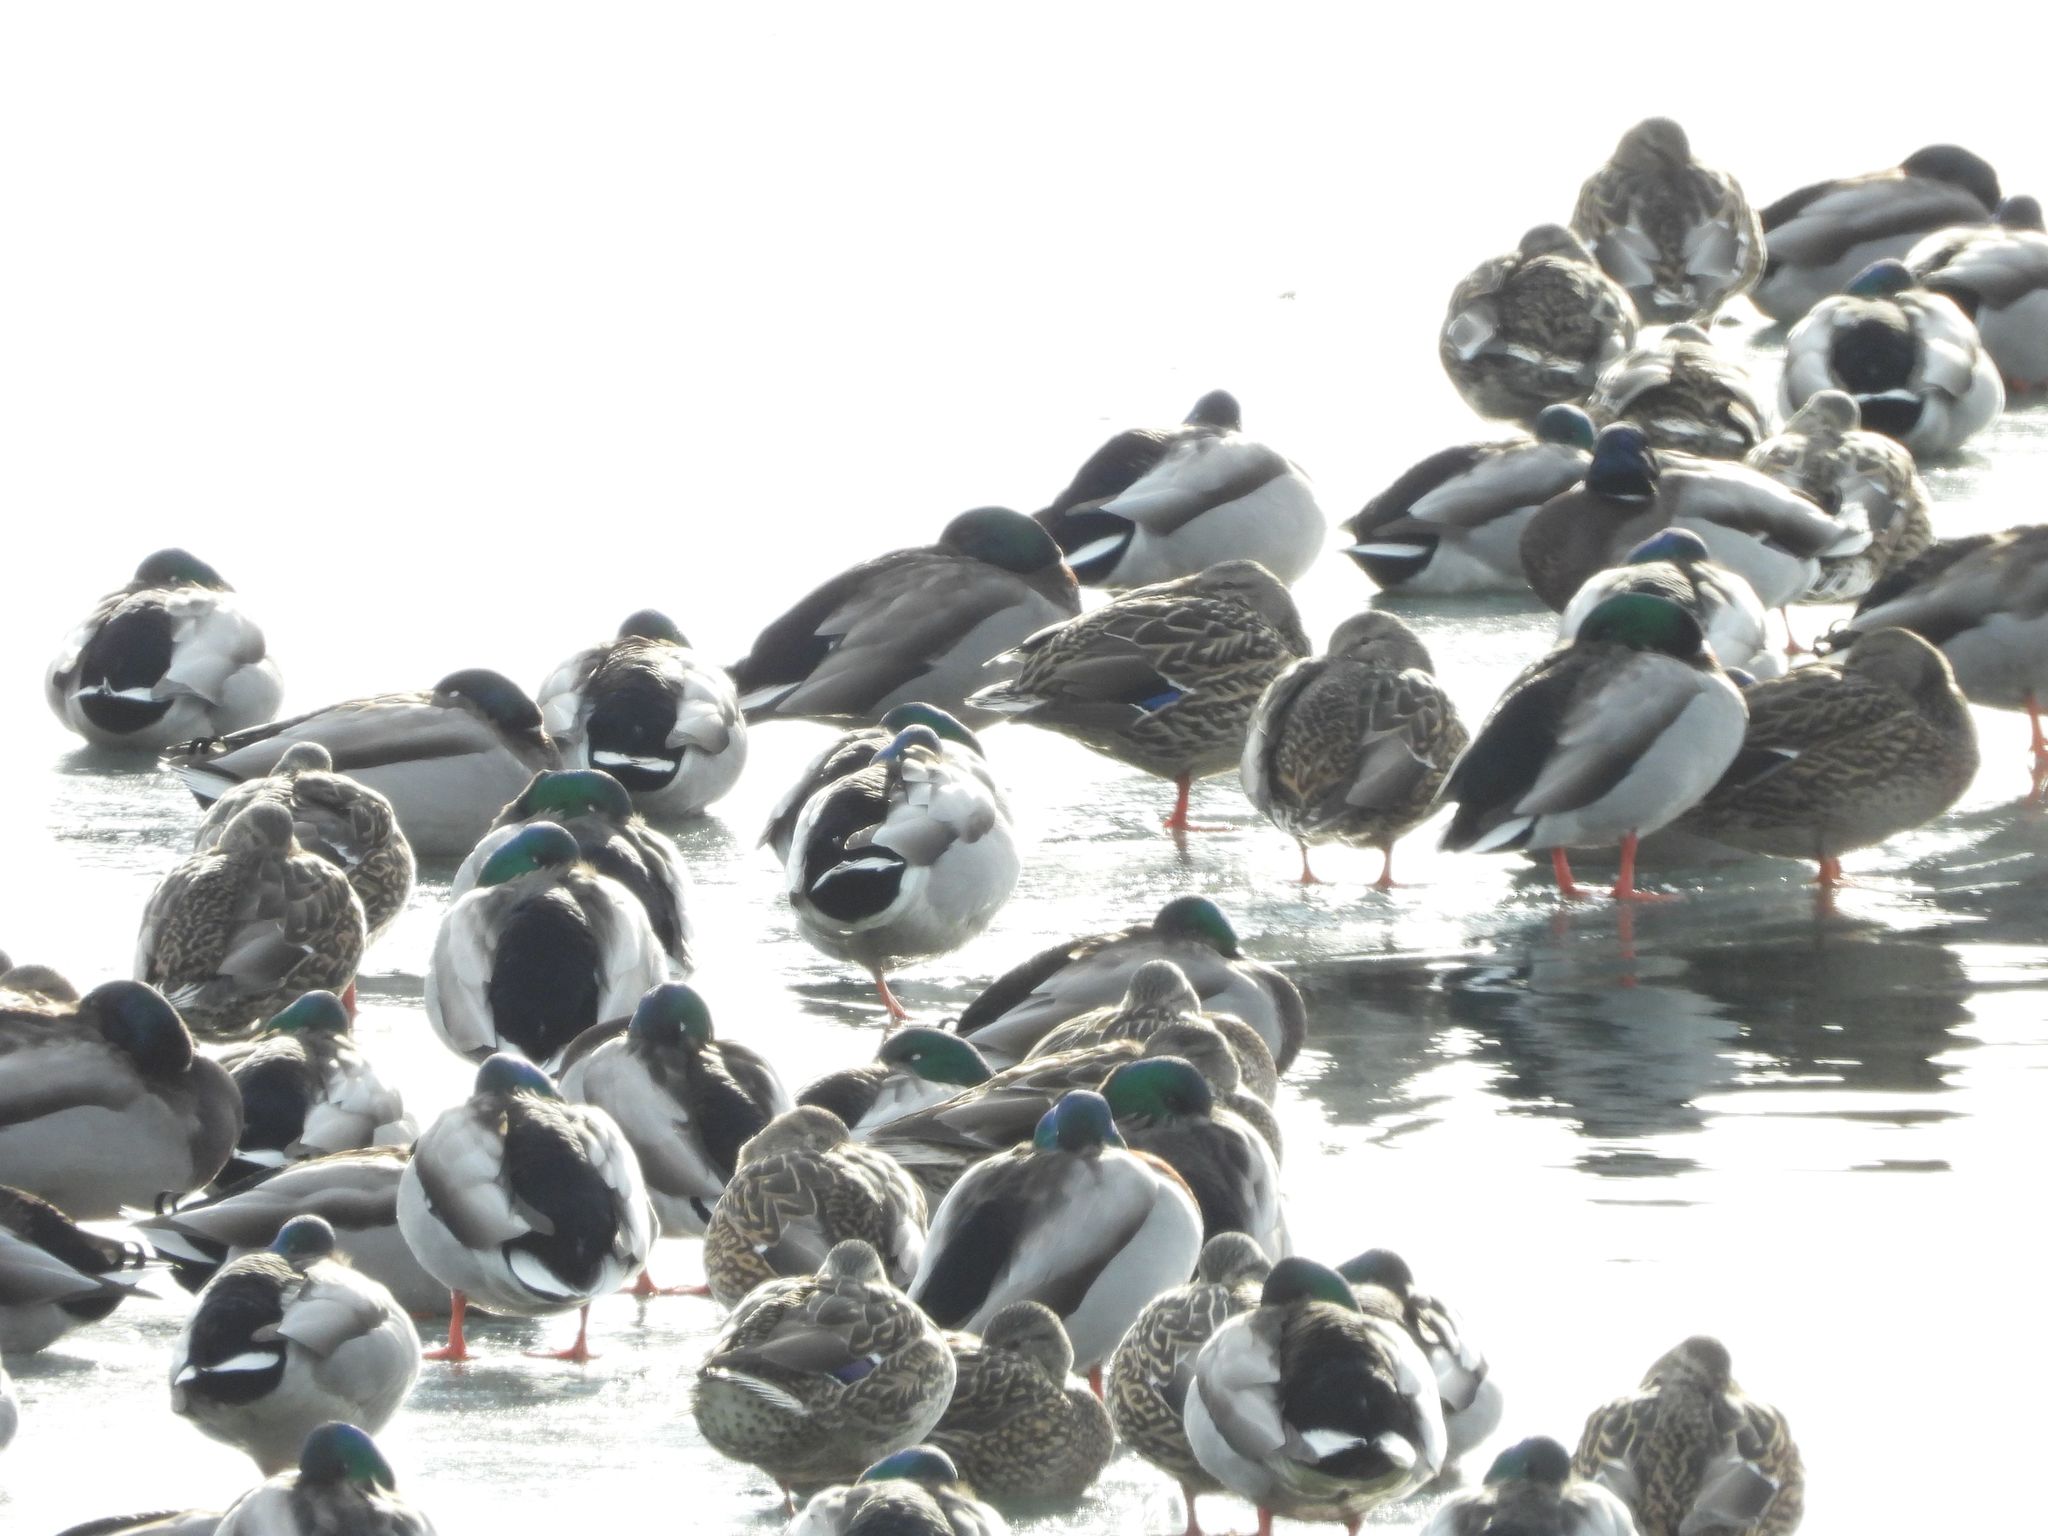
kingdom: Animalia
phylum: Chordata
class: Aves
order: Anseriformes
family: Anatidae
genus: Anas
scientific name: Anas platyrhynchos
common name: Mallard
